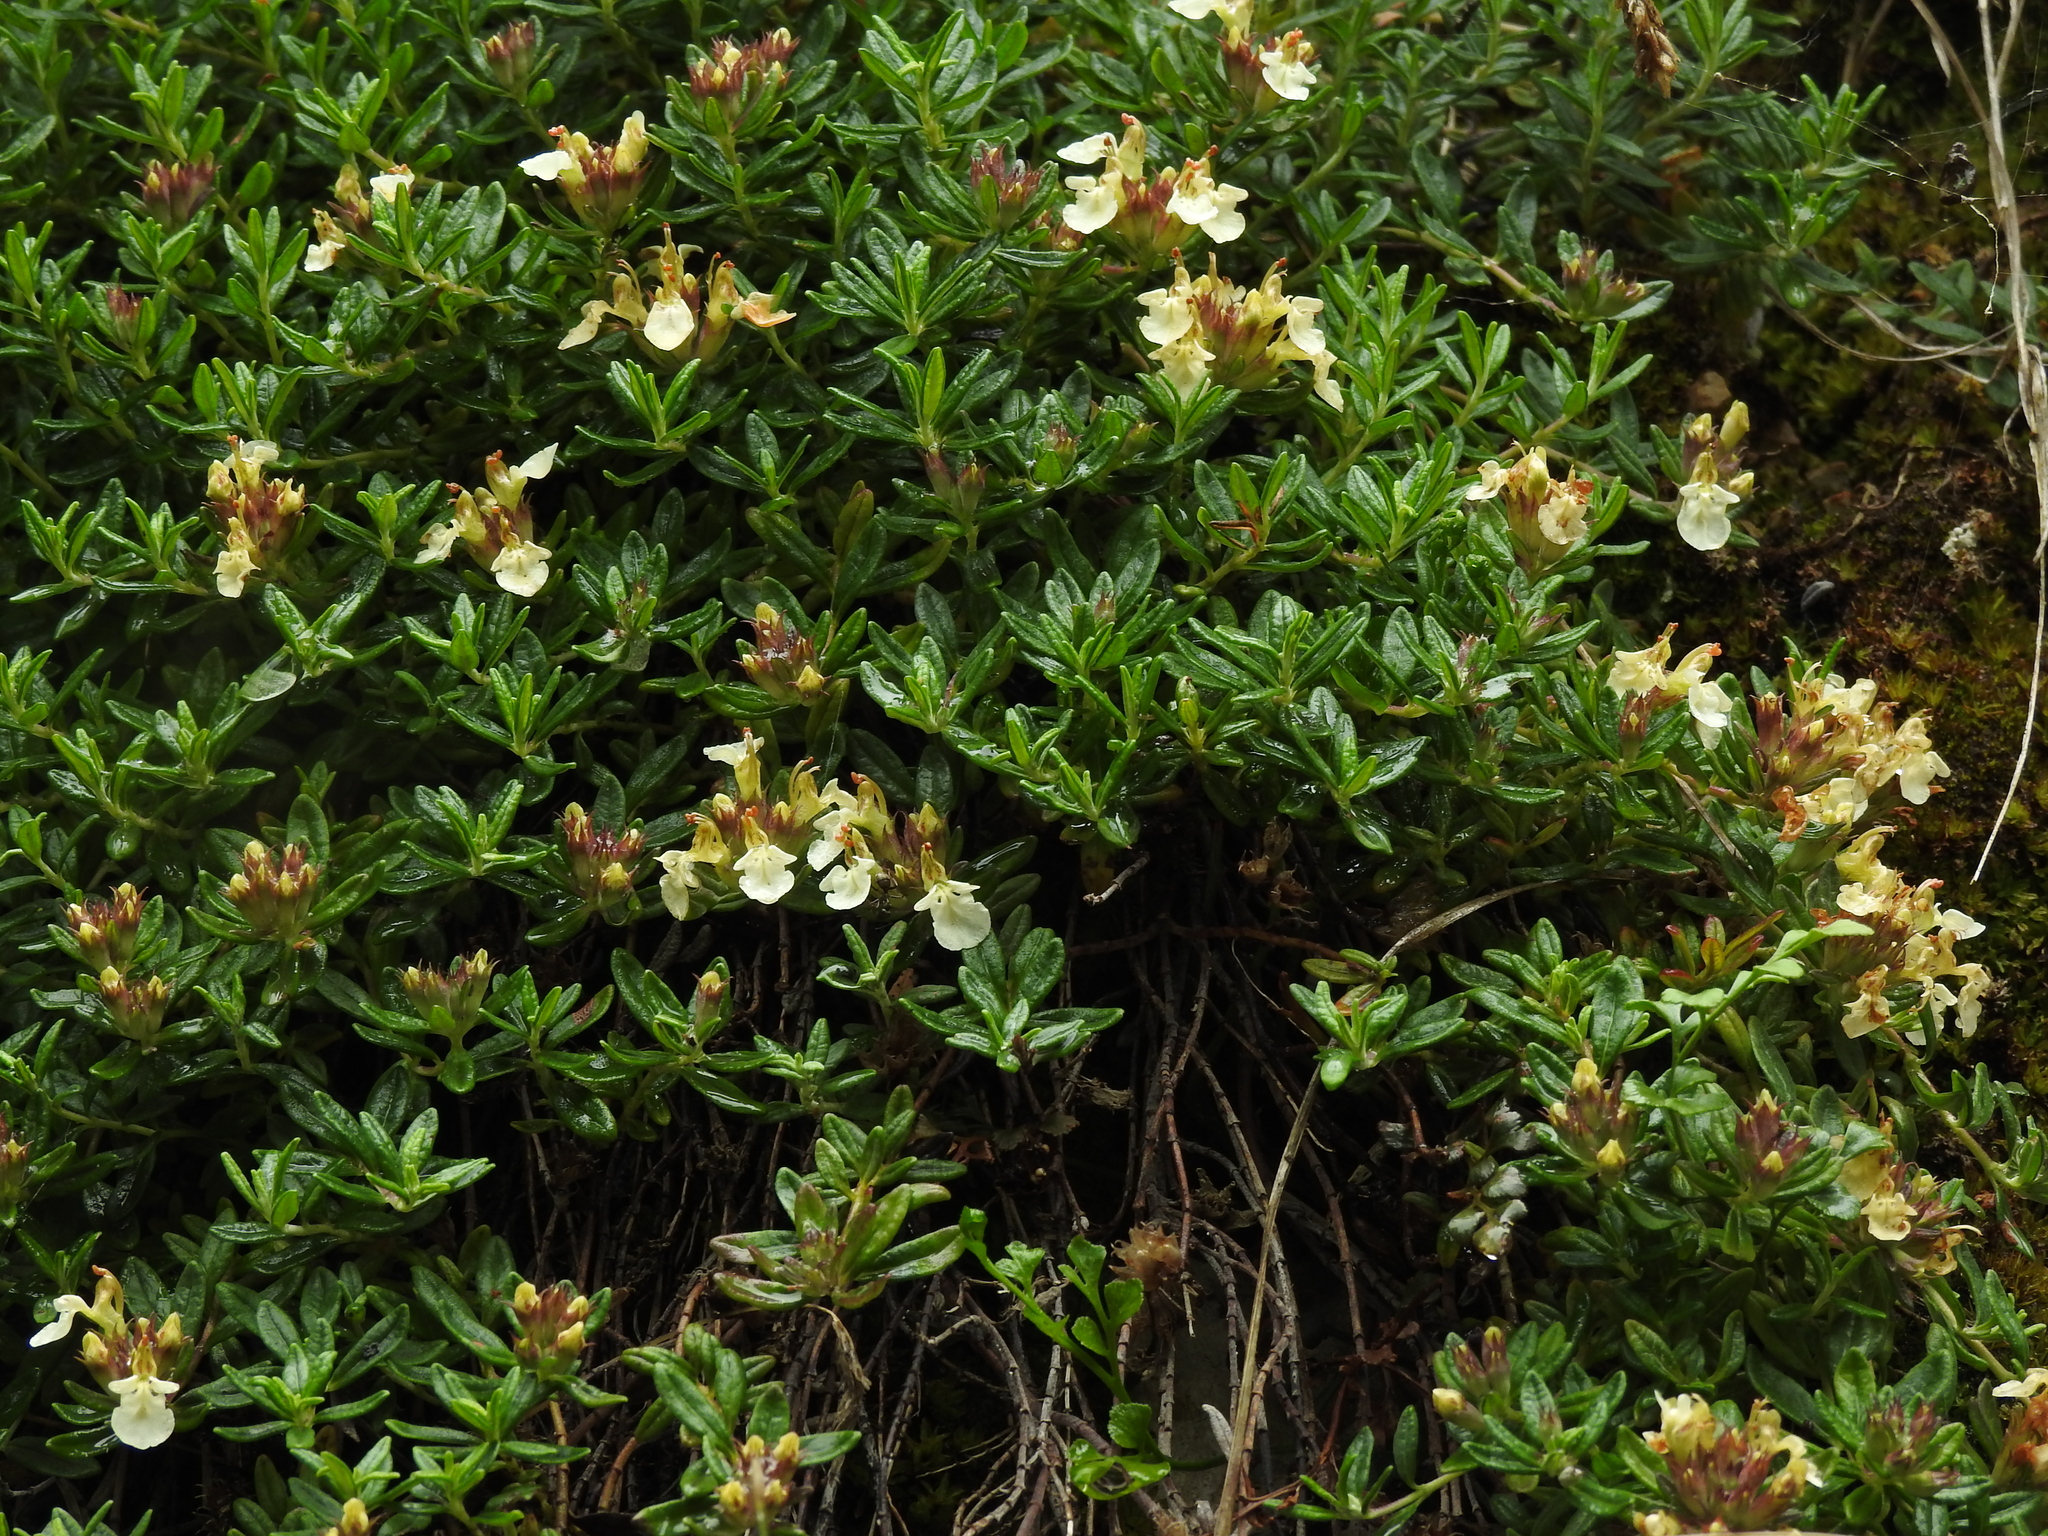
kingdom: Plantae
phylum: Tracheophyta
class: Magnoliopsida
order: Lamiales
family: Lamiaceae
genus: Teucrium
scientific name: Teucrium montanum
